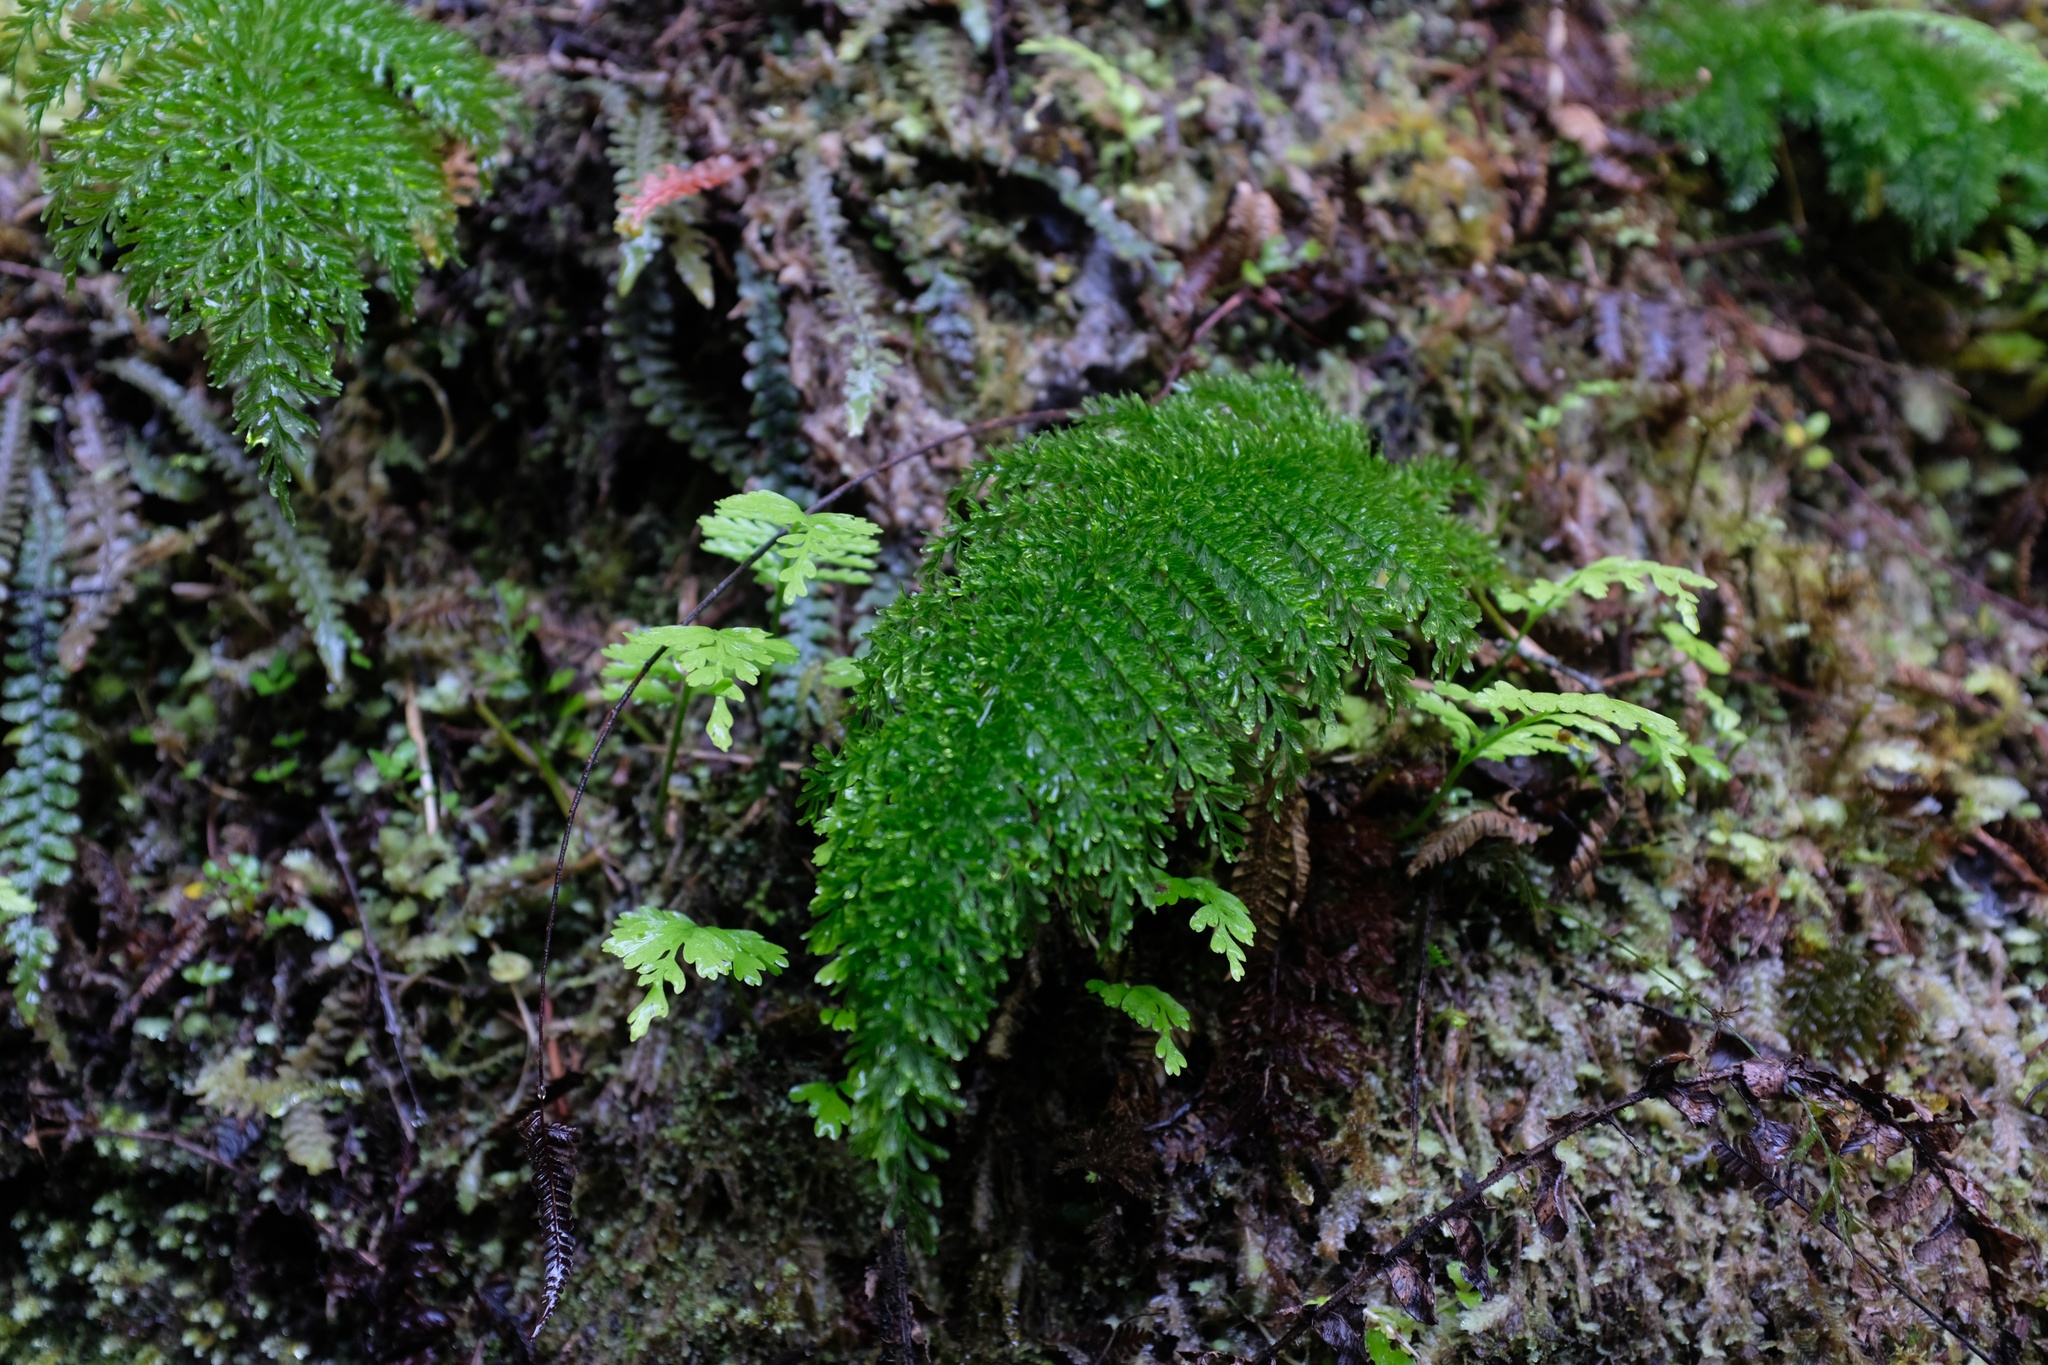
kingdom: Plantae
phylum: Tracheophyta
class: Polypodiopsida
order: Osmundales
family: Osmundaceae
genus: Leptopteris
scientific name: Leptopteris superba
